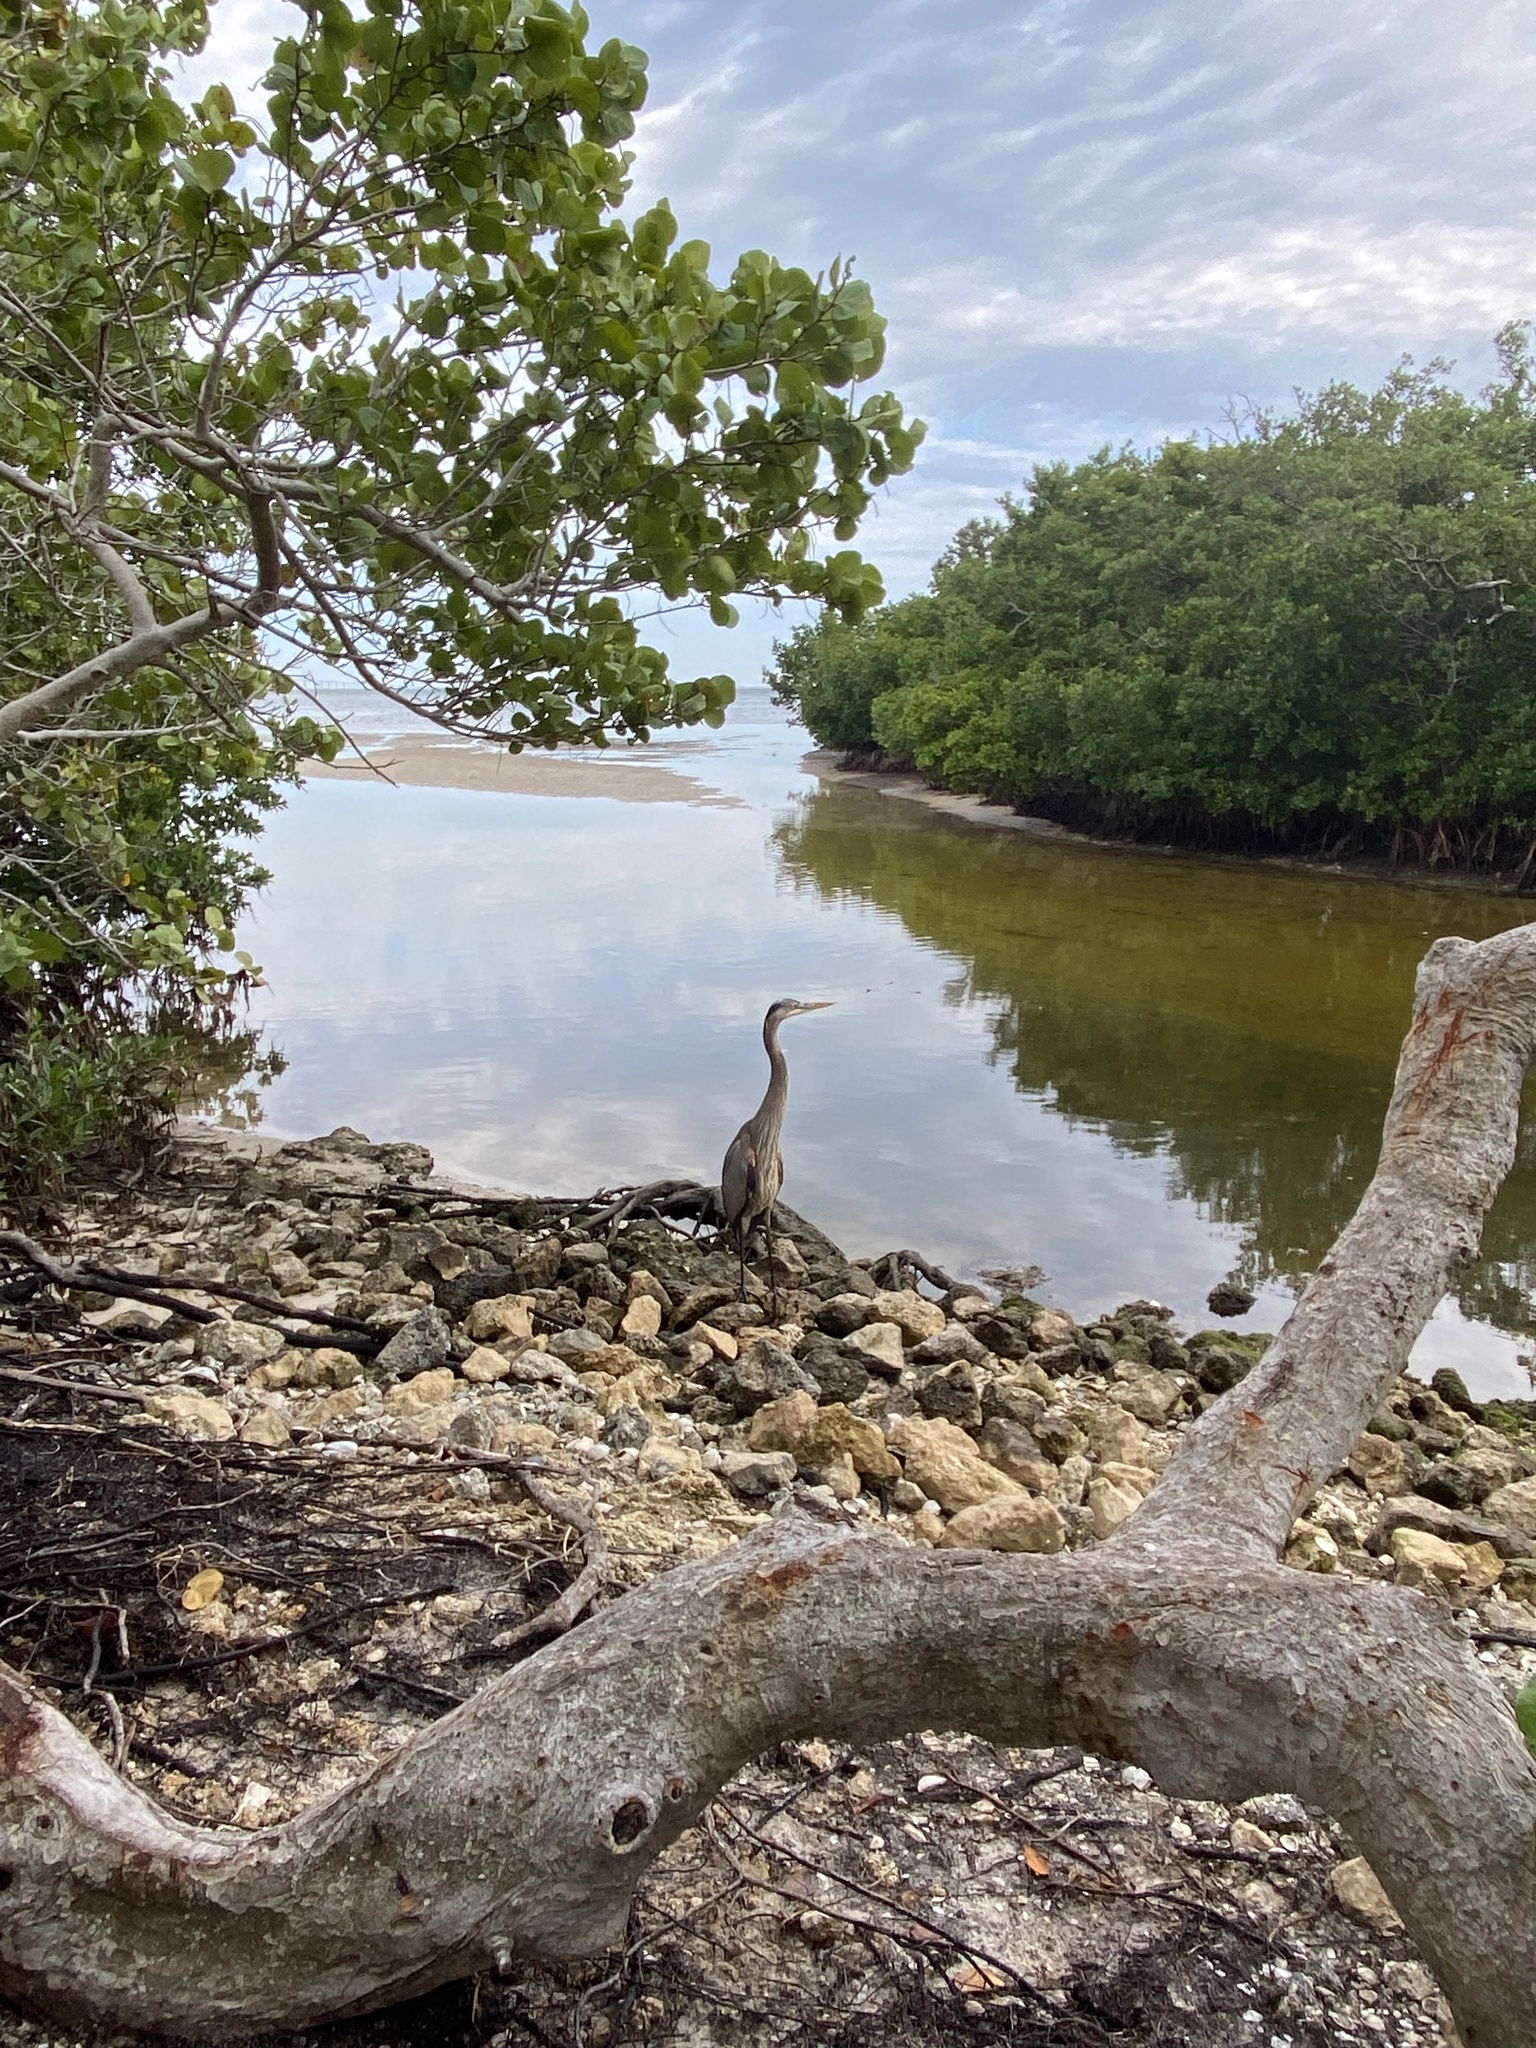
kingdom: Animalia
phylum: Chordata
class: Aves
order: Pelecaniformes
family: Ardeidae
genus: Ardea
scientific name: Ardea herodias
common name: Great blue heron
